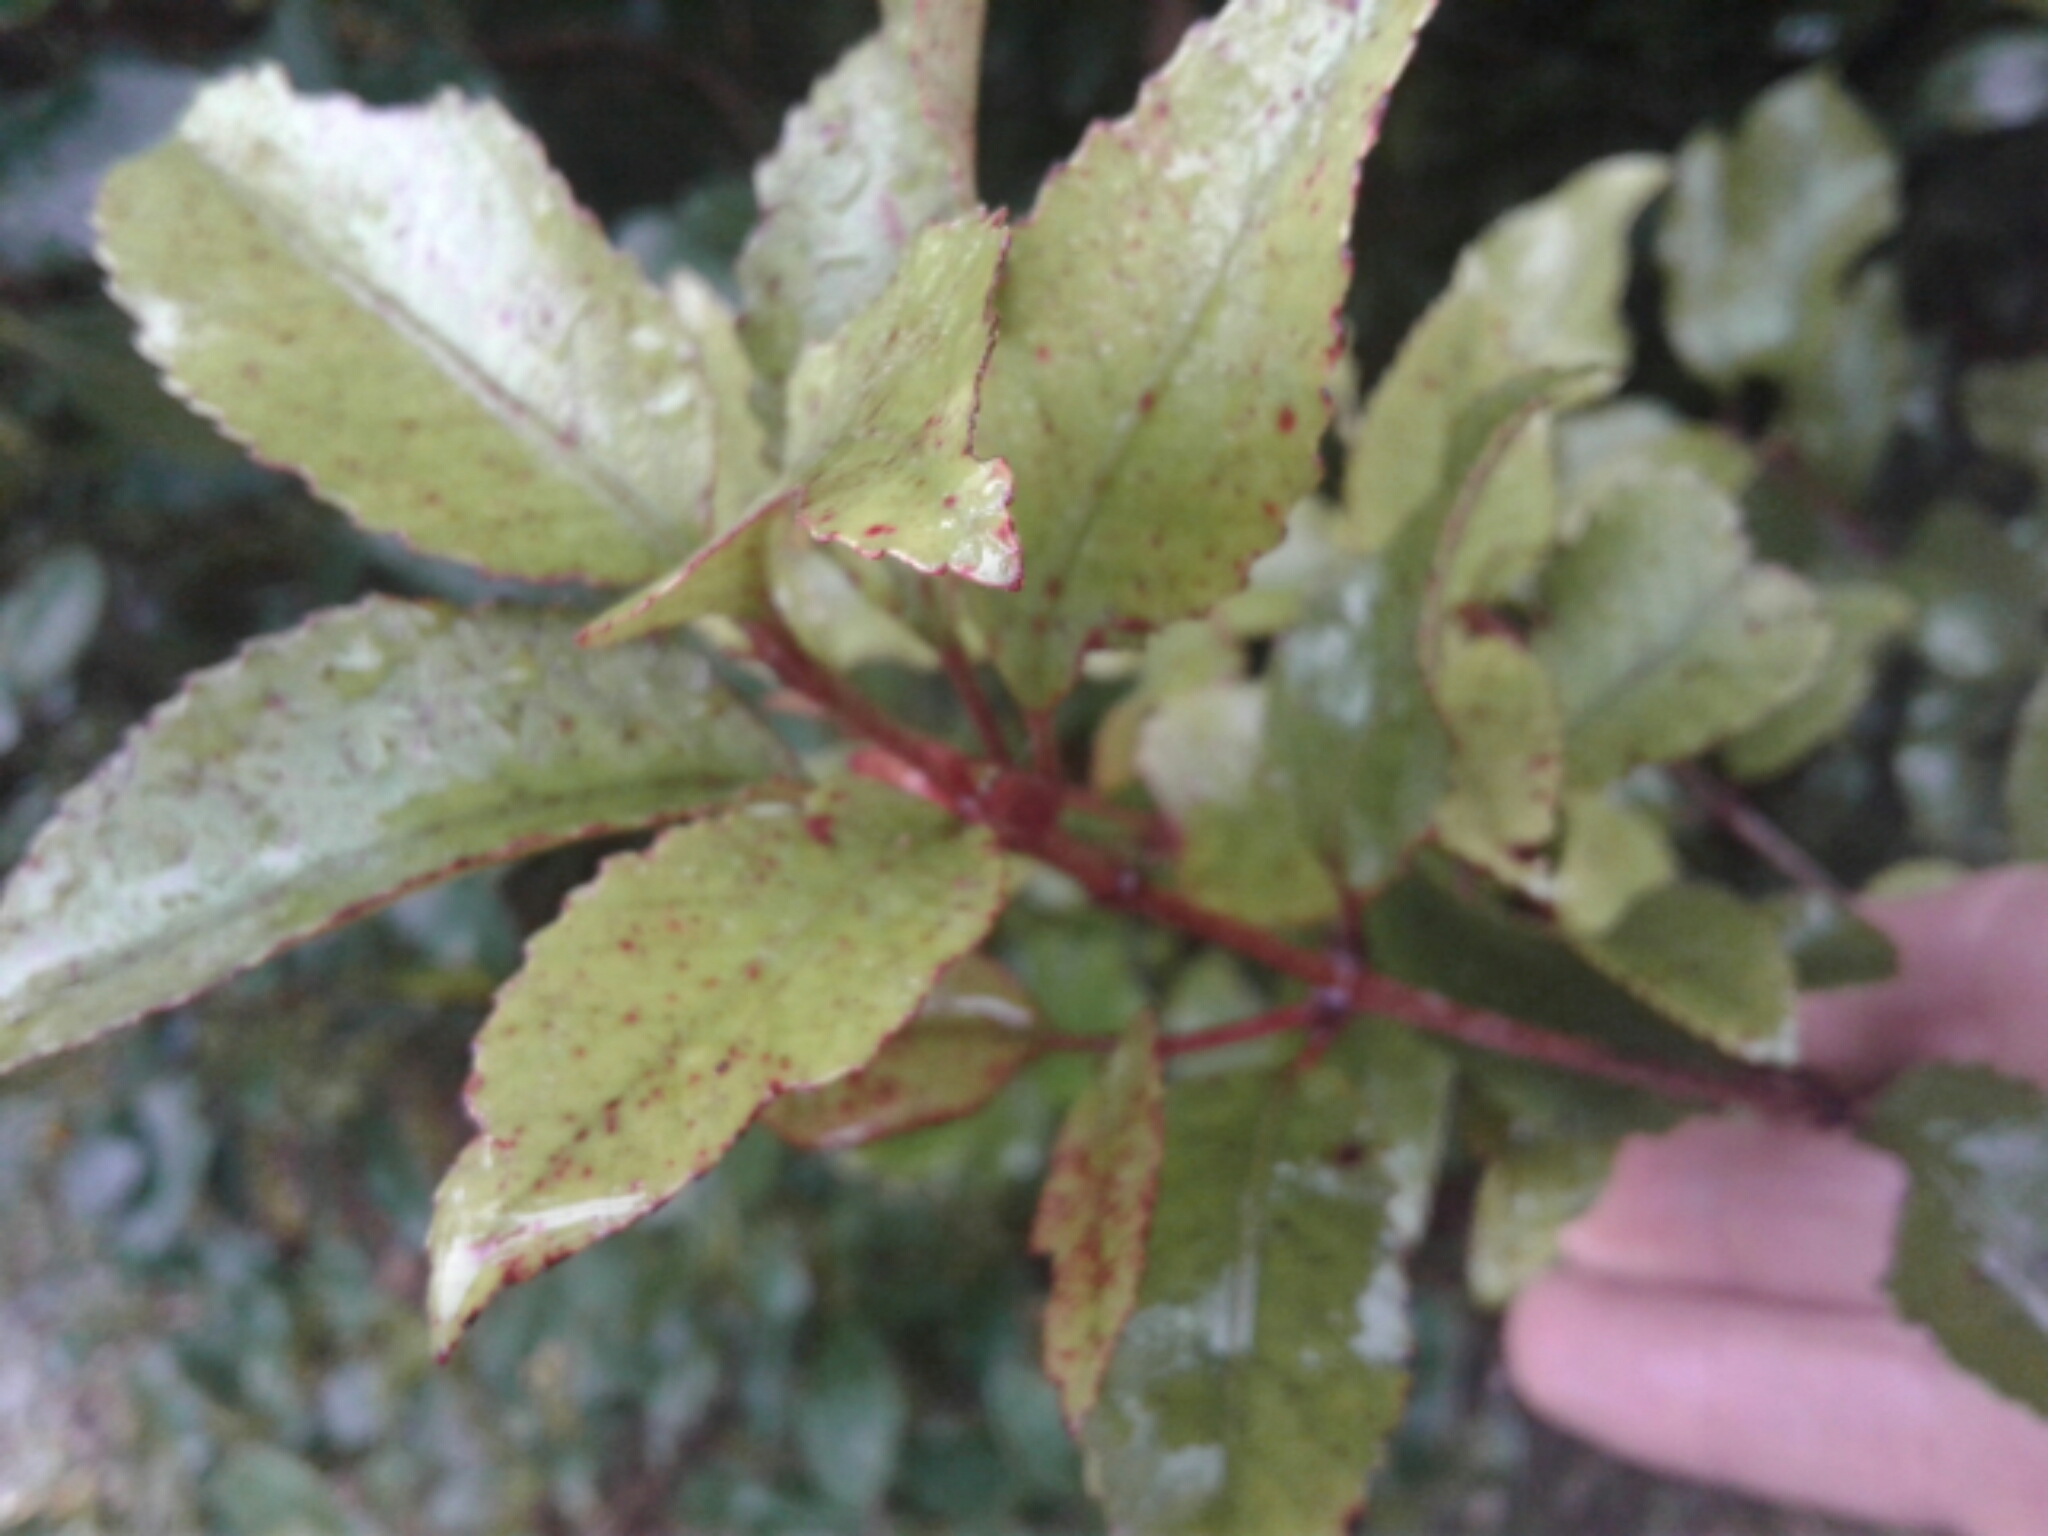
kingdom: Plantae
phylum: Tracheophyta
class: Magnoliopsida
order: Oxalidales
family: Cunoniaceae
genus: Pterophylla
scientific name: Pterophylla racemosa
